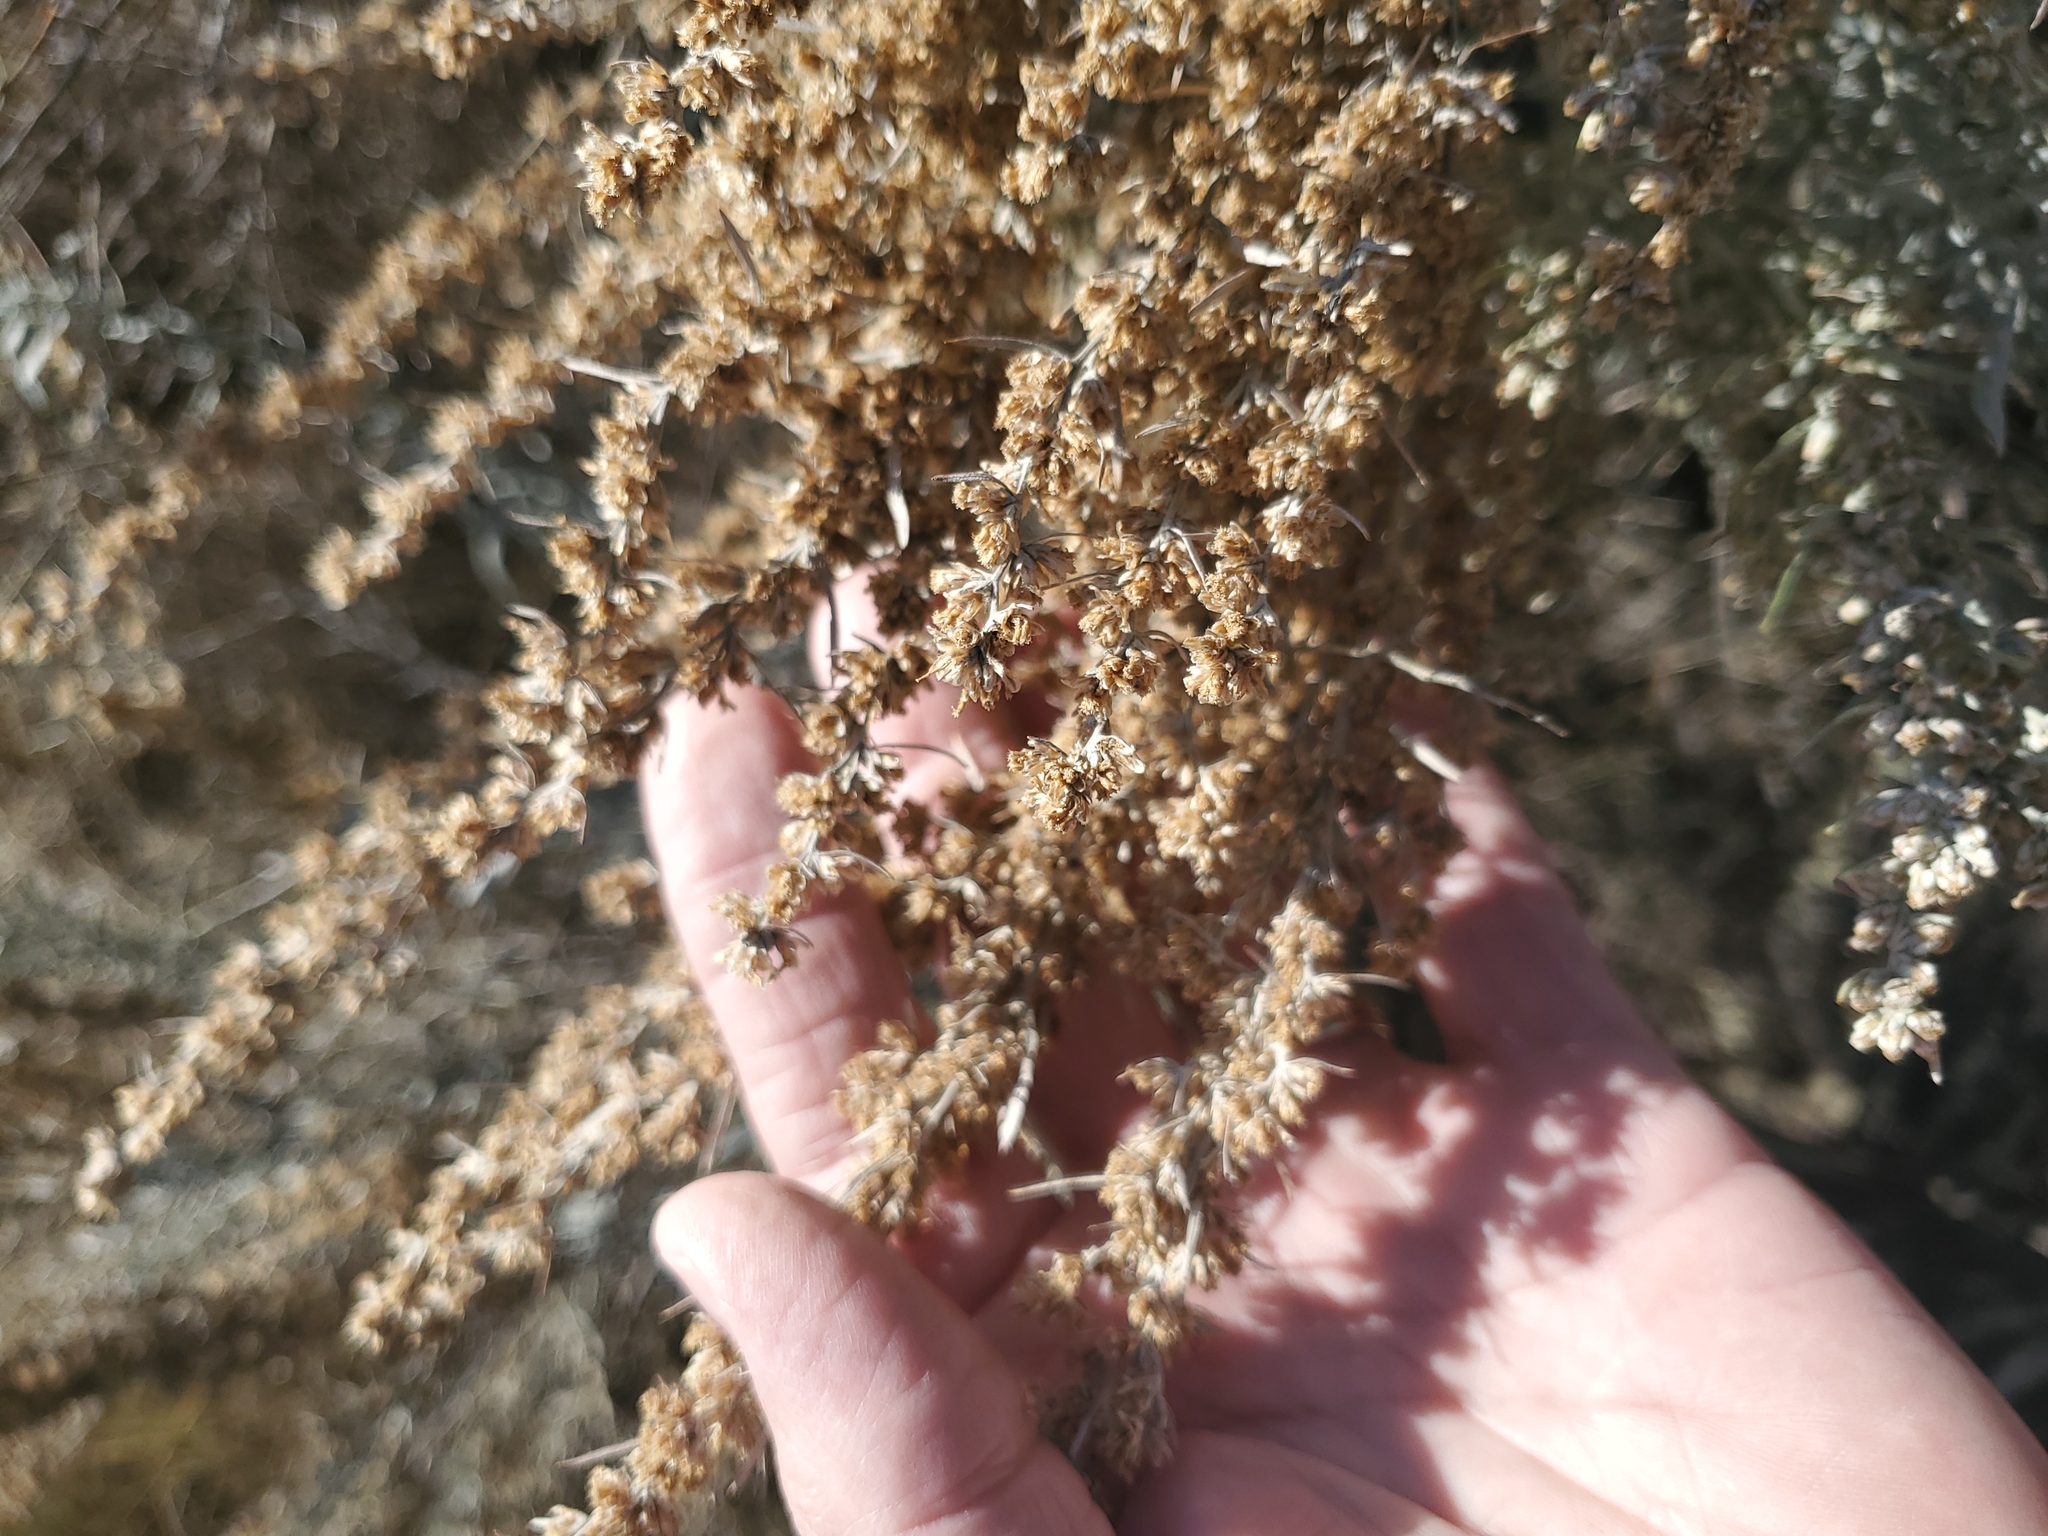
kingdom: Plantae
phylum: Tracheophyta
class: Magnoliopsida
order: Asterales
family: Asteraceae
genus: Artemisia
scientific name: Artemisia cana
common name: Silver sagebrush
